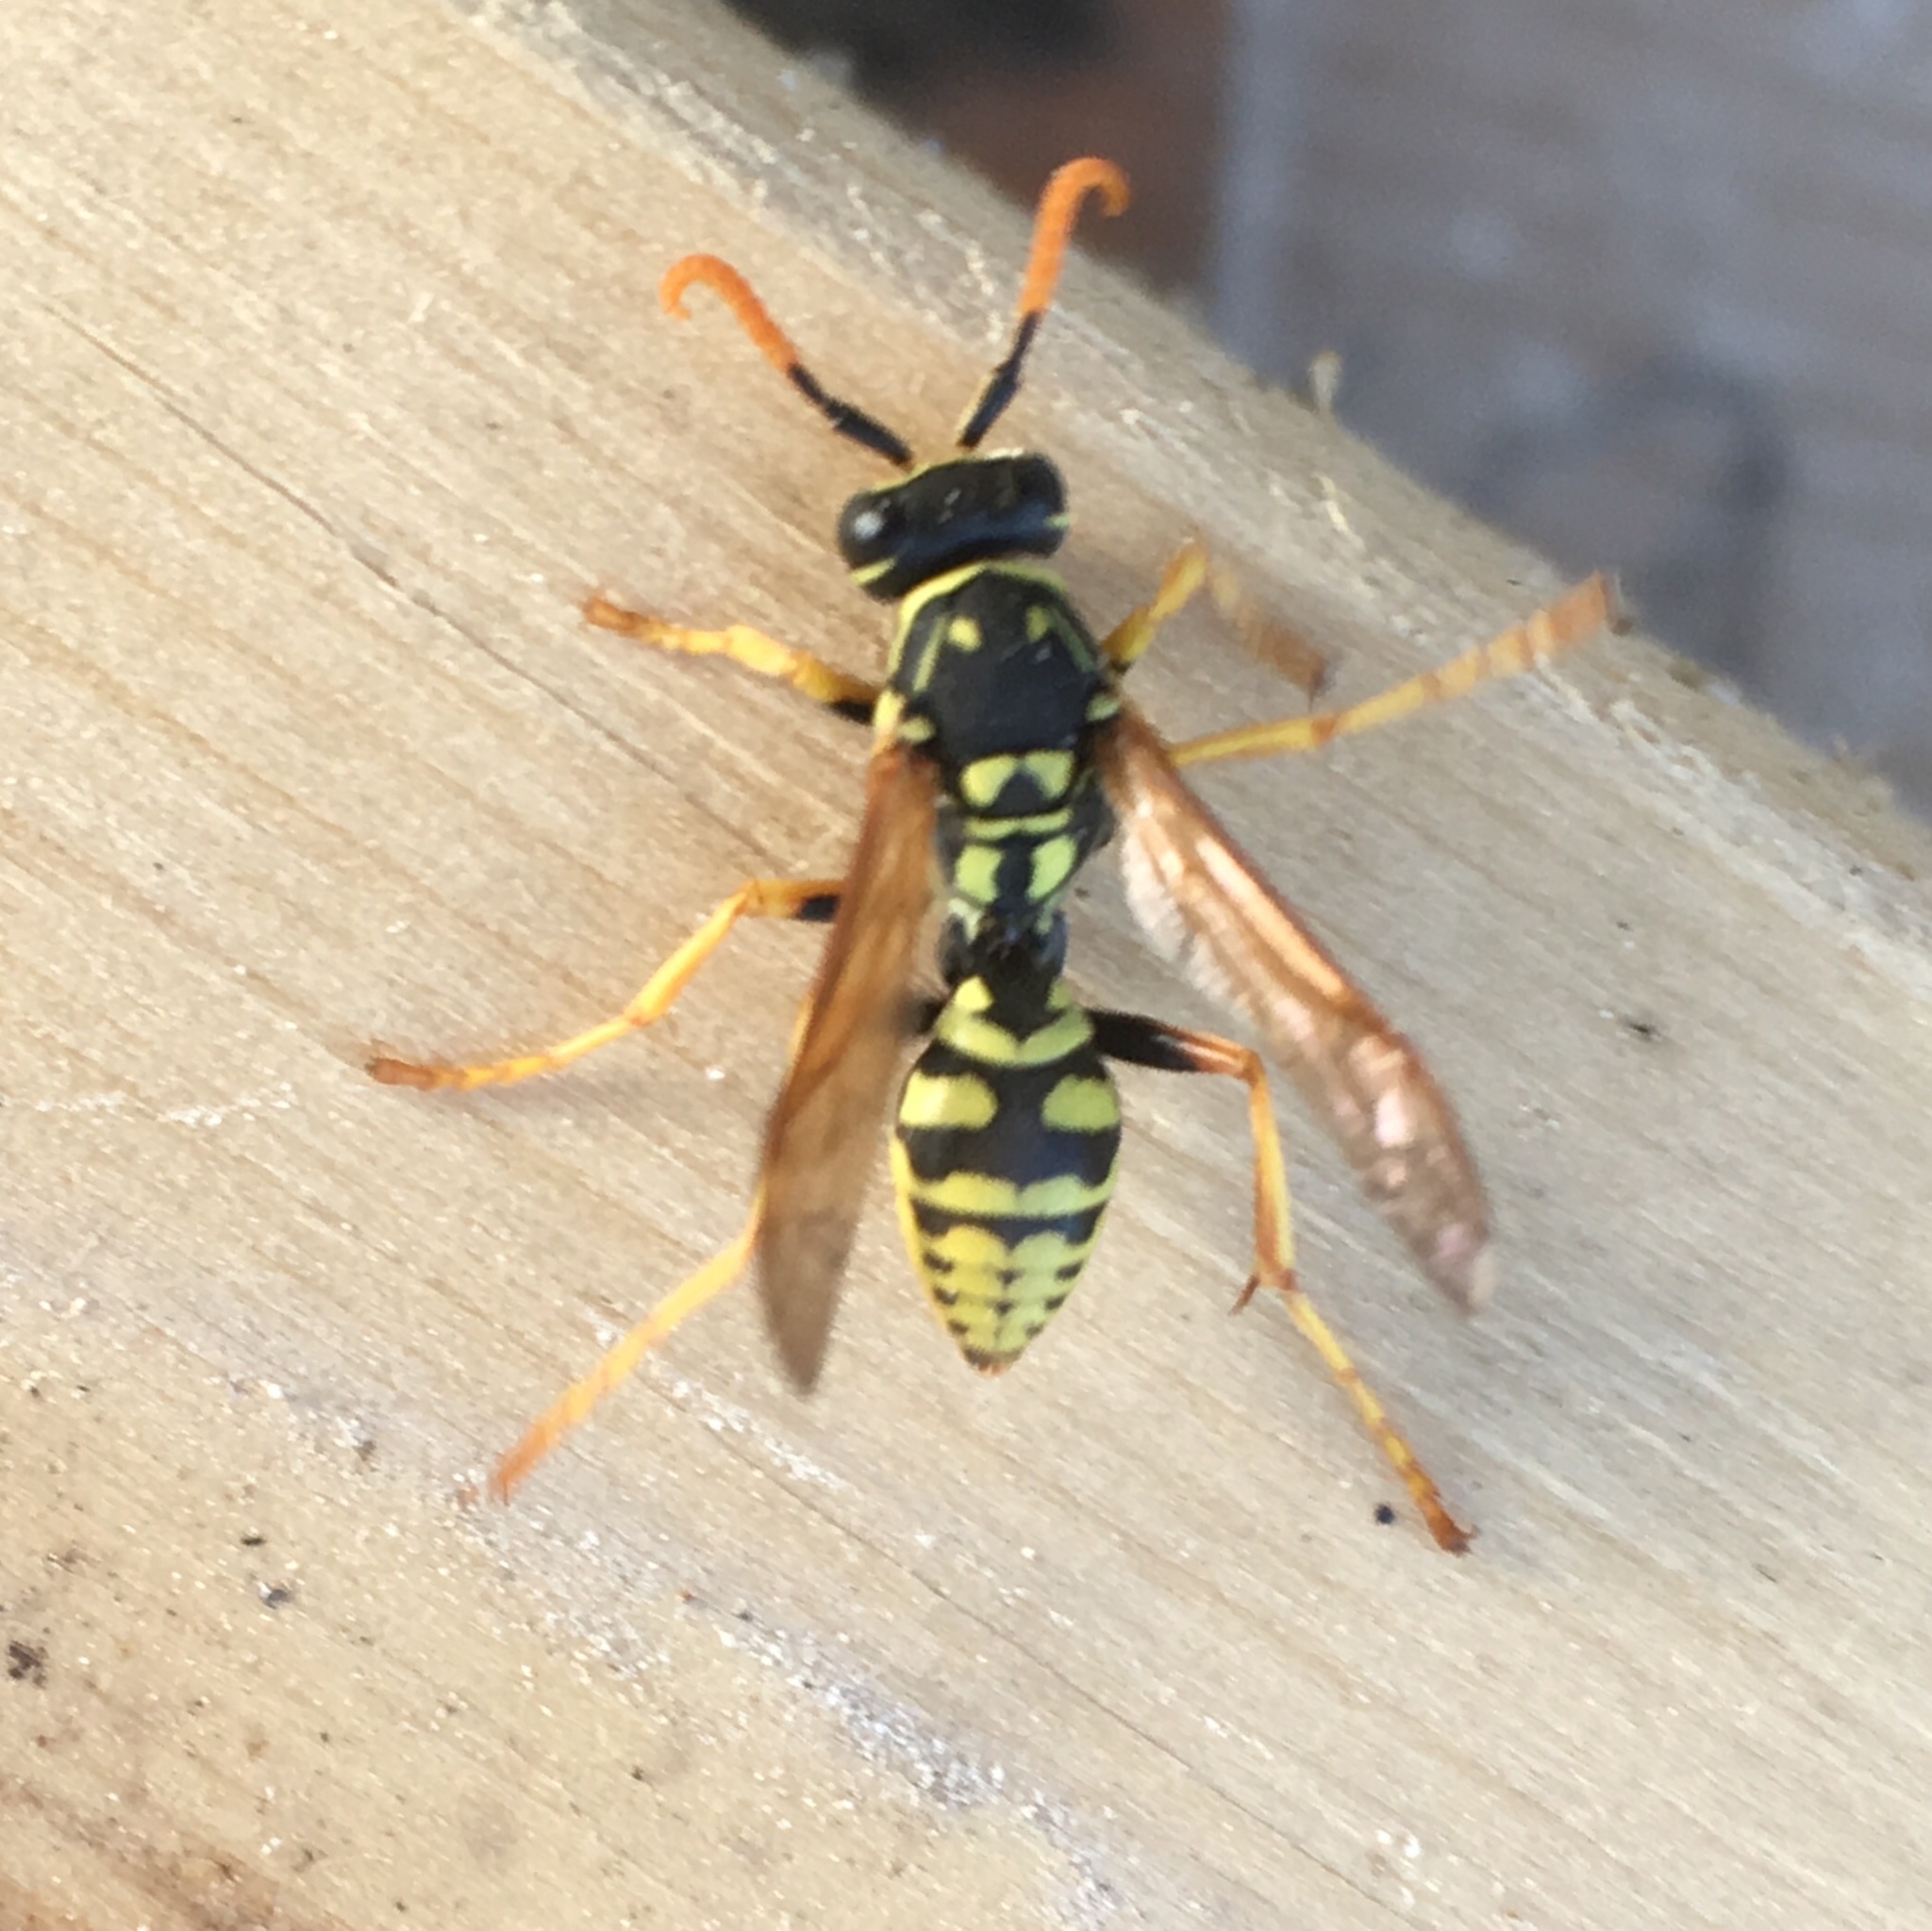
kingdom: Animalia
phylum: Arthropoda
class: Insecta
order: Hymenoptera
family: Eumenidae
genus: Polistes
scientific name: Polistes dominula
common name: Paper wasp
